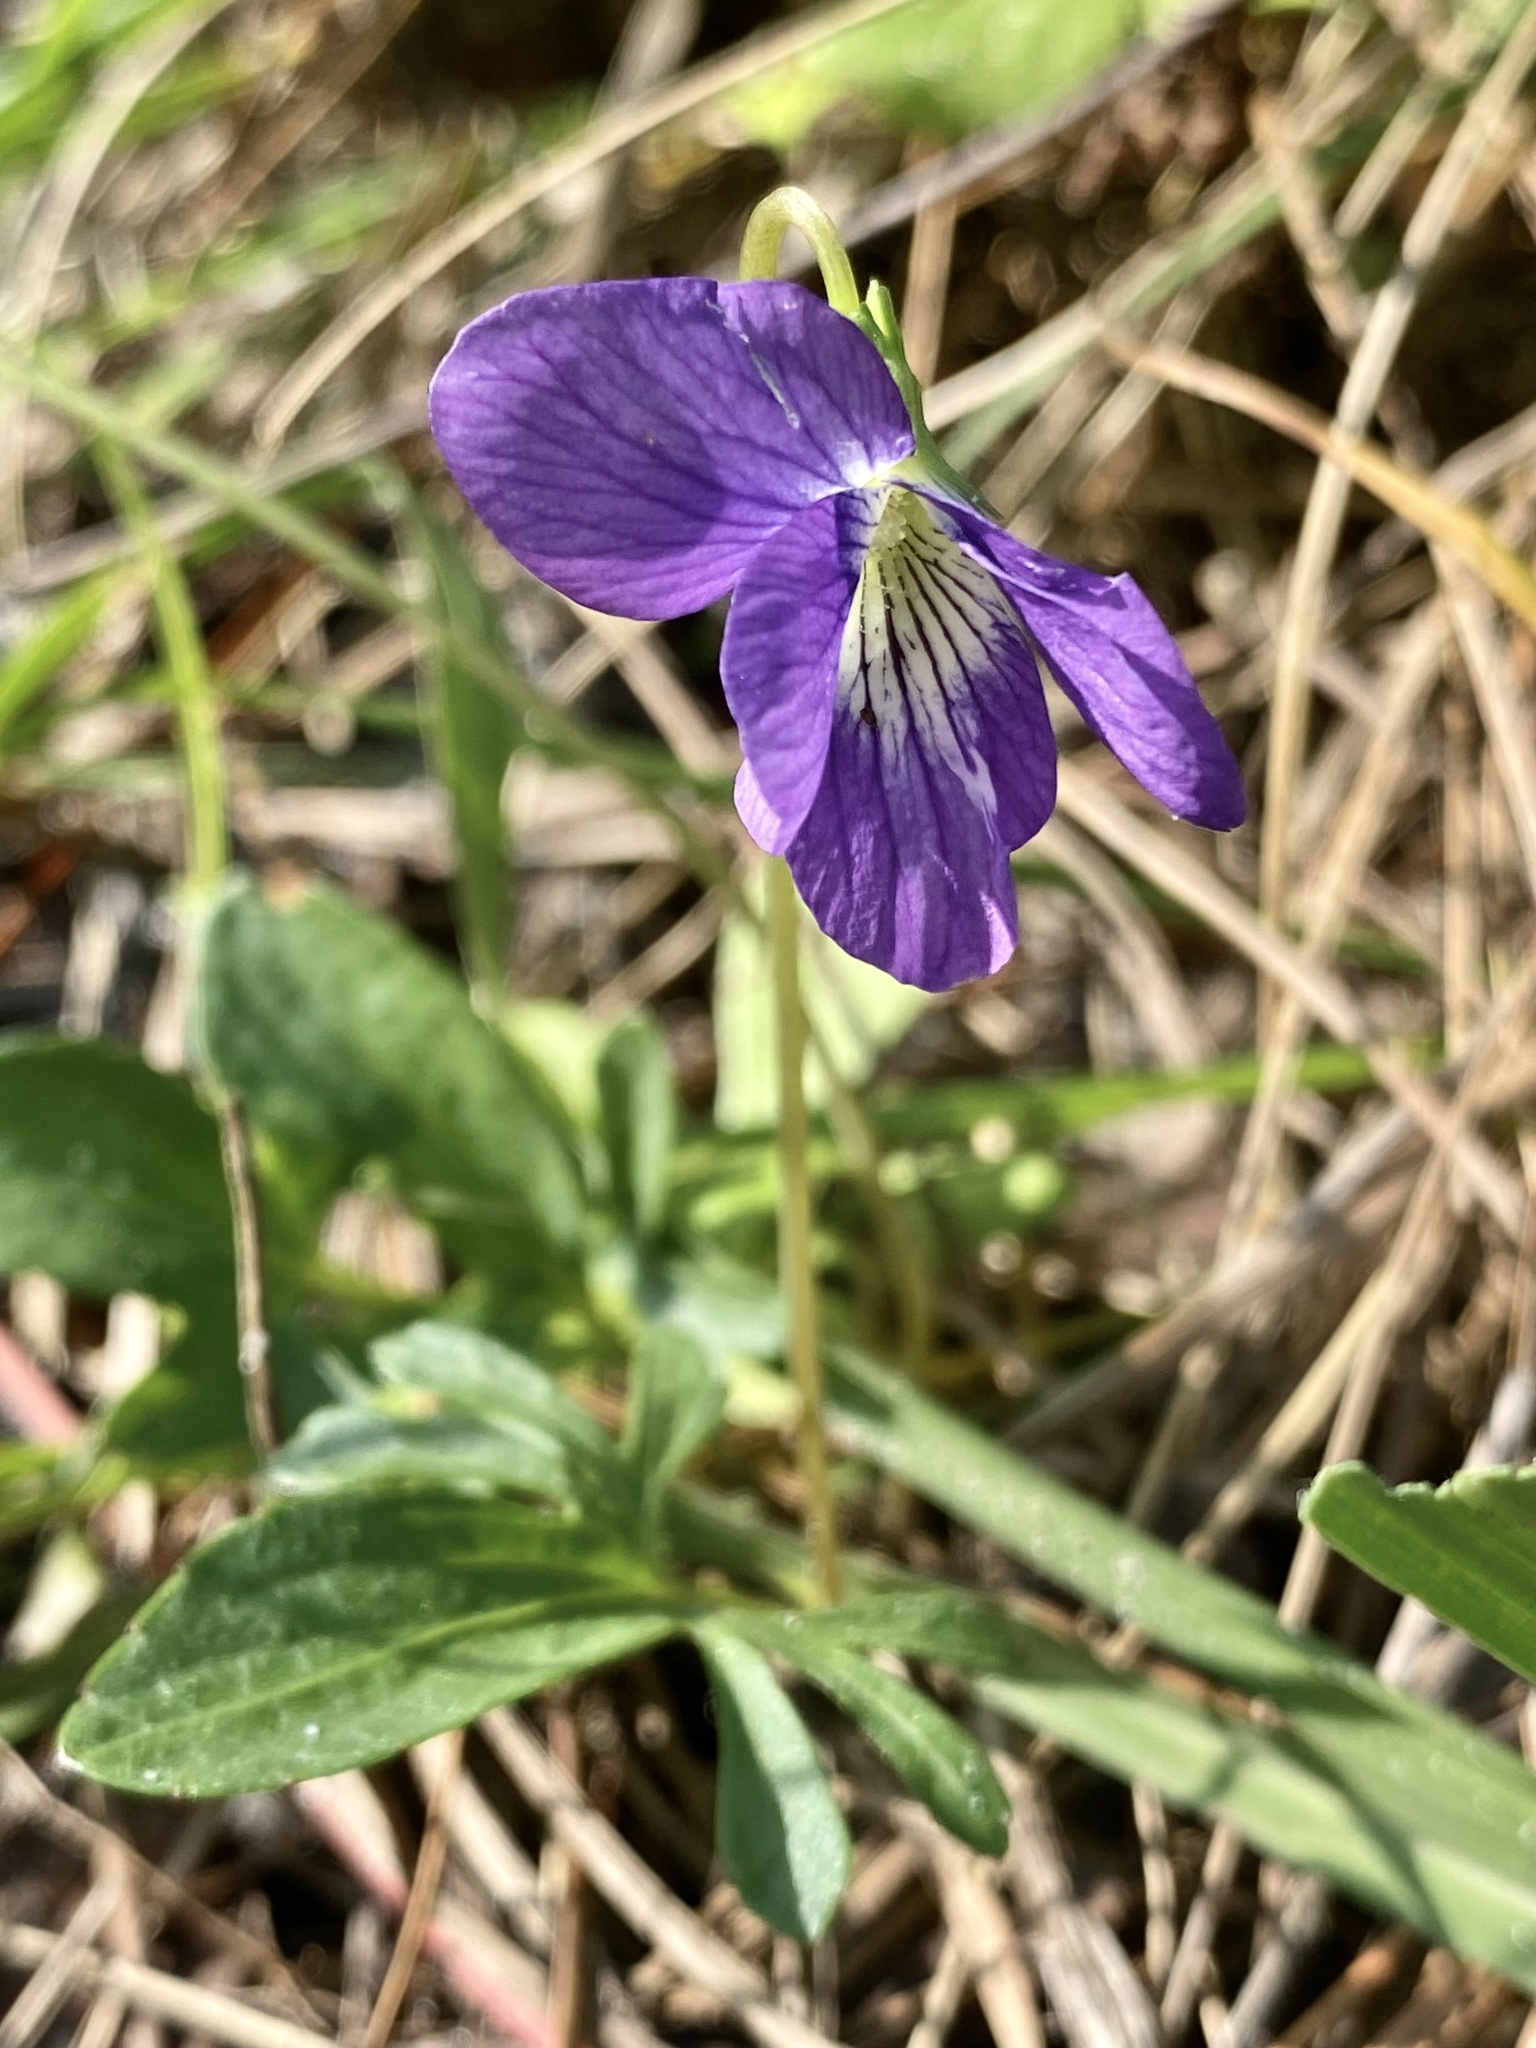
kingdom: Plantae
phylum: Tracheophyta
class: Magnoliopsida
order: Malpighiales
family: Violaceae
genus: Viola
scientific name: Viola palmata
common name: Early blue violet
